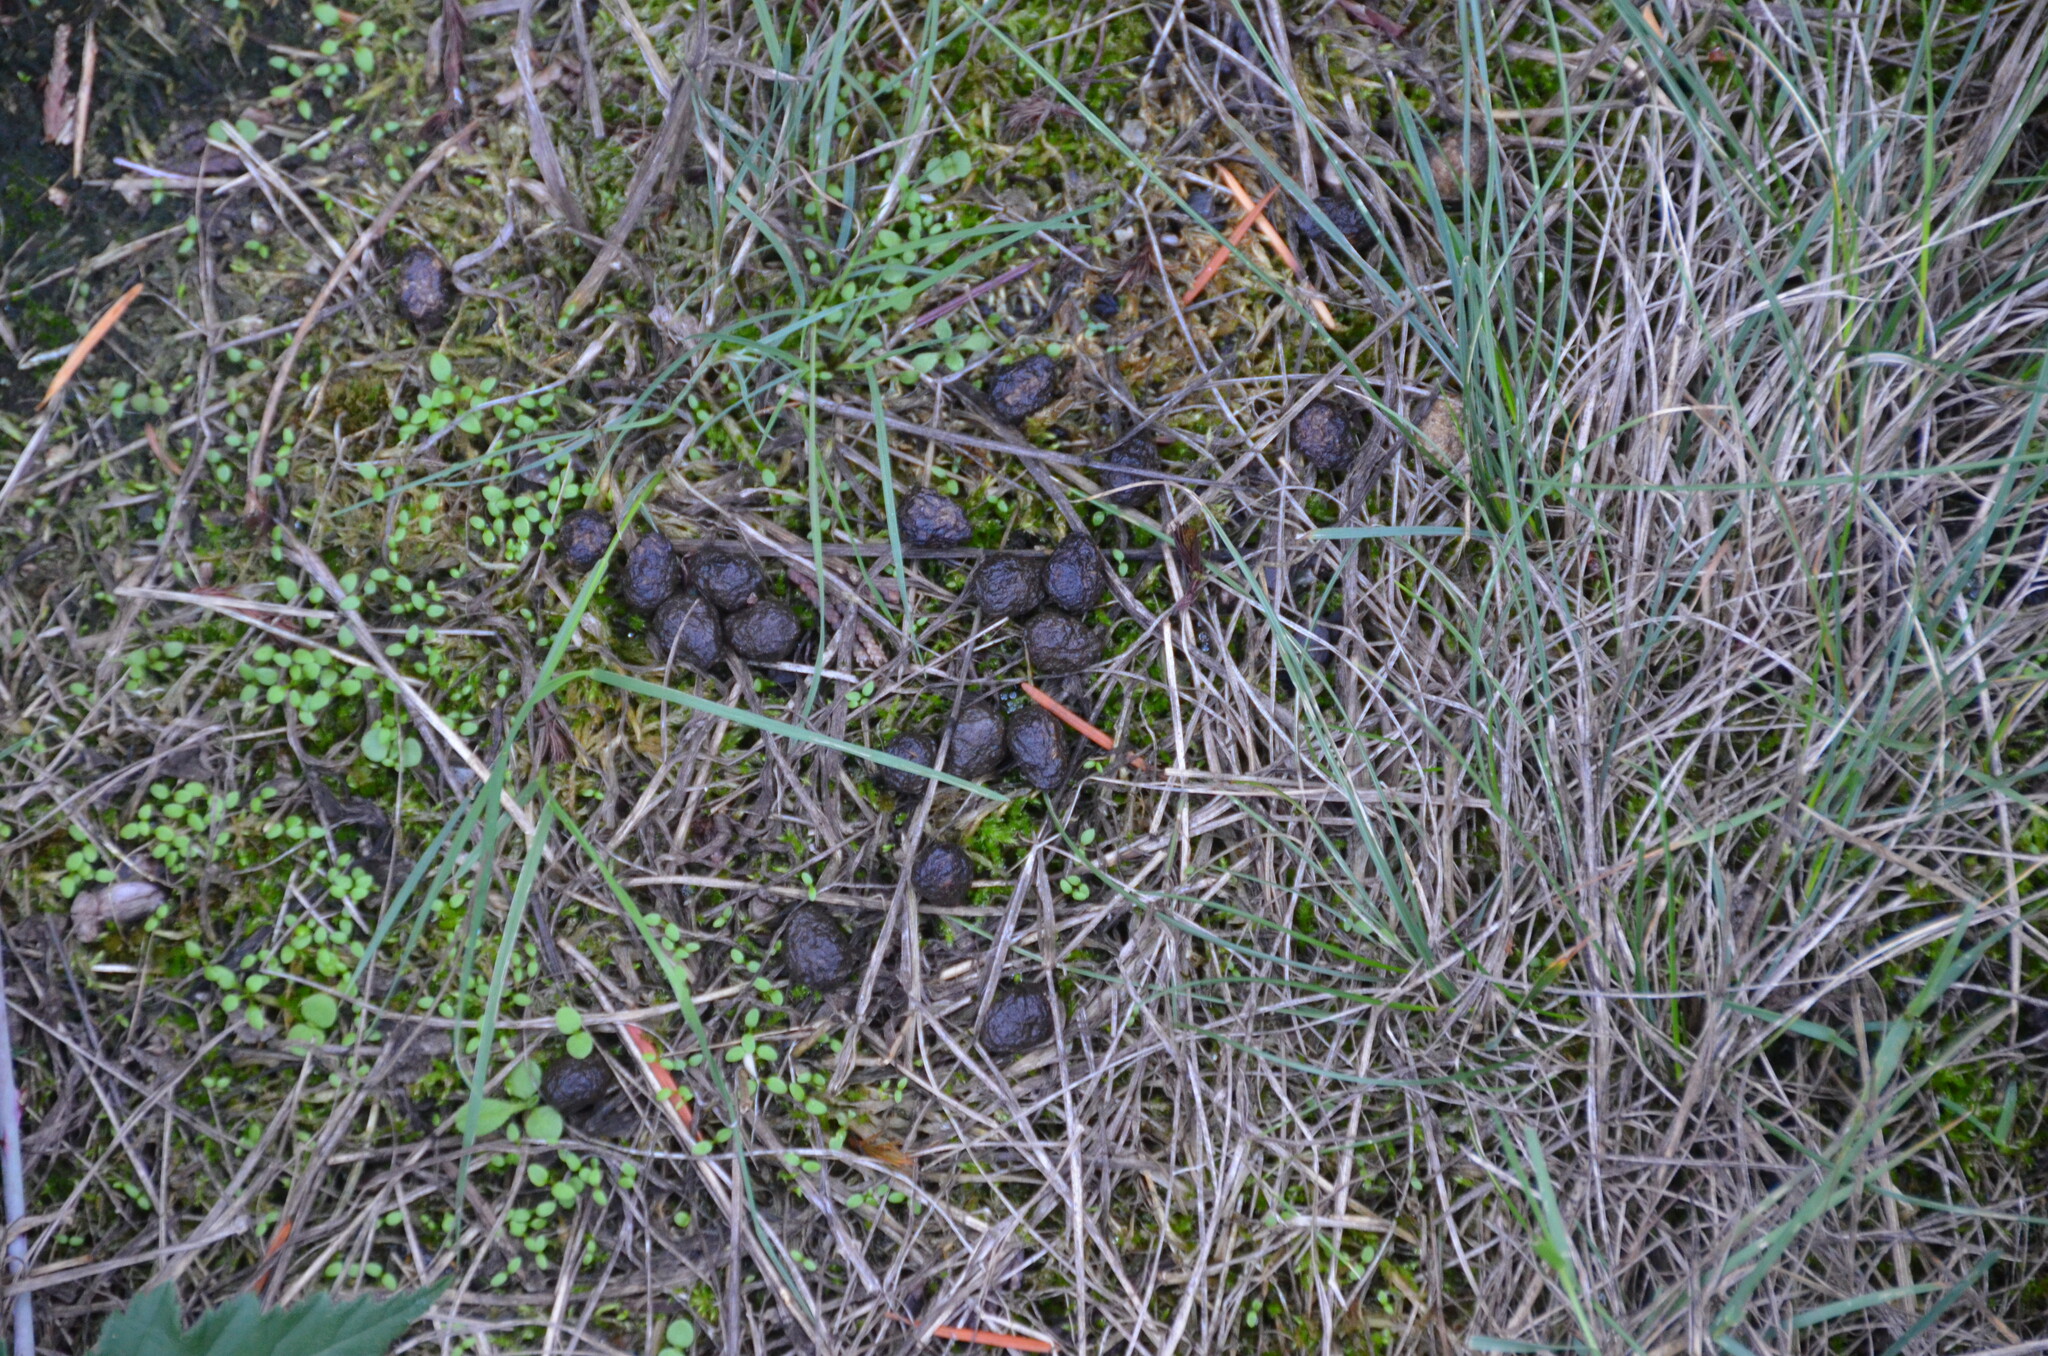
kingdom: Animalia
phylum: Chordata
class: Mammalia
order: Lagomorpha
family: Leporidae
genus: Sylvilagus
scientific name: Sylvilagus floridanus
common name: Eastern cottontail
